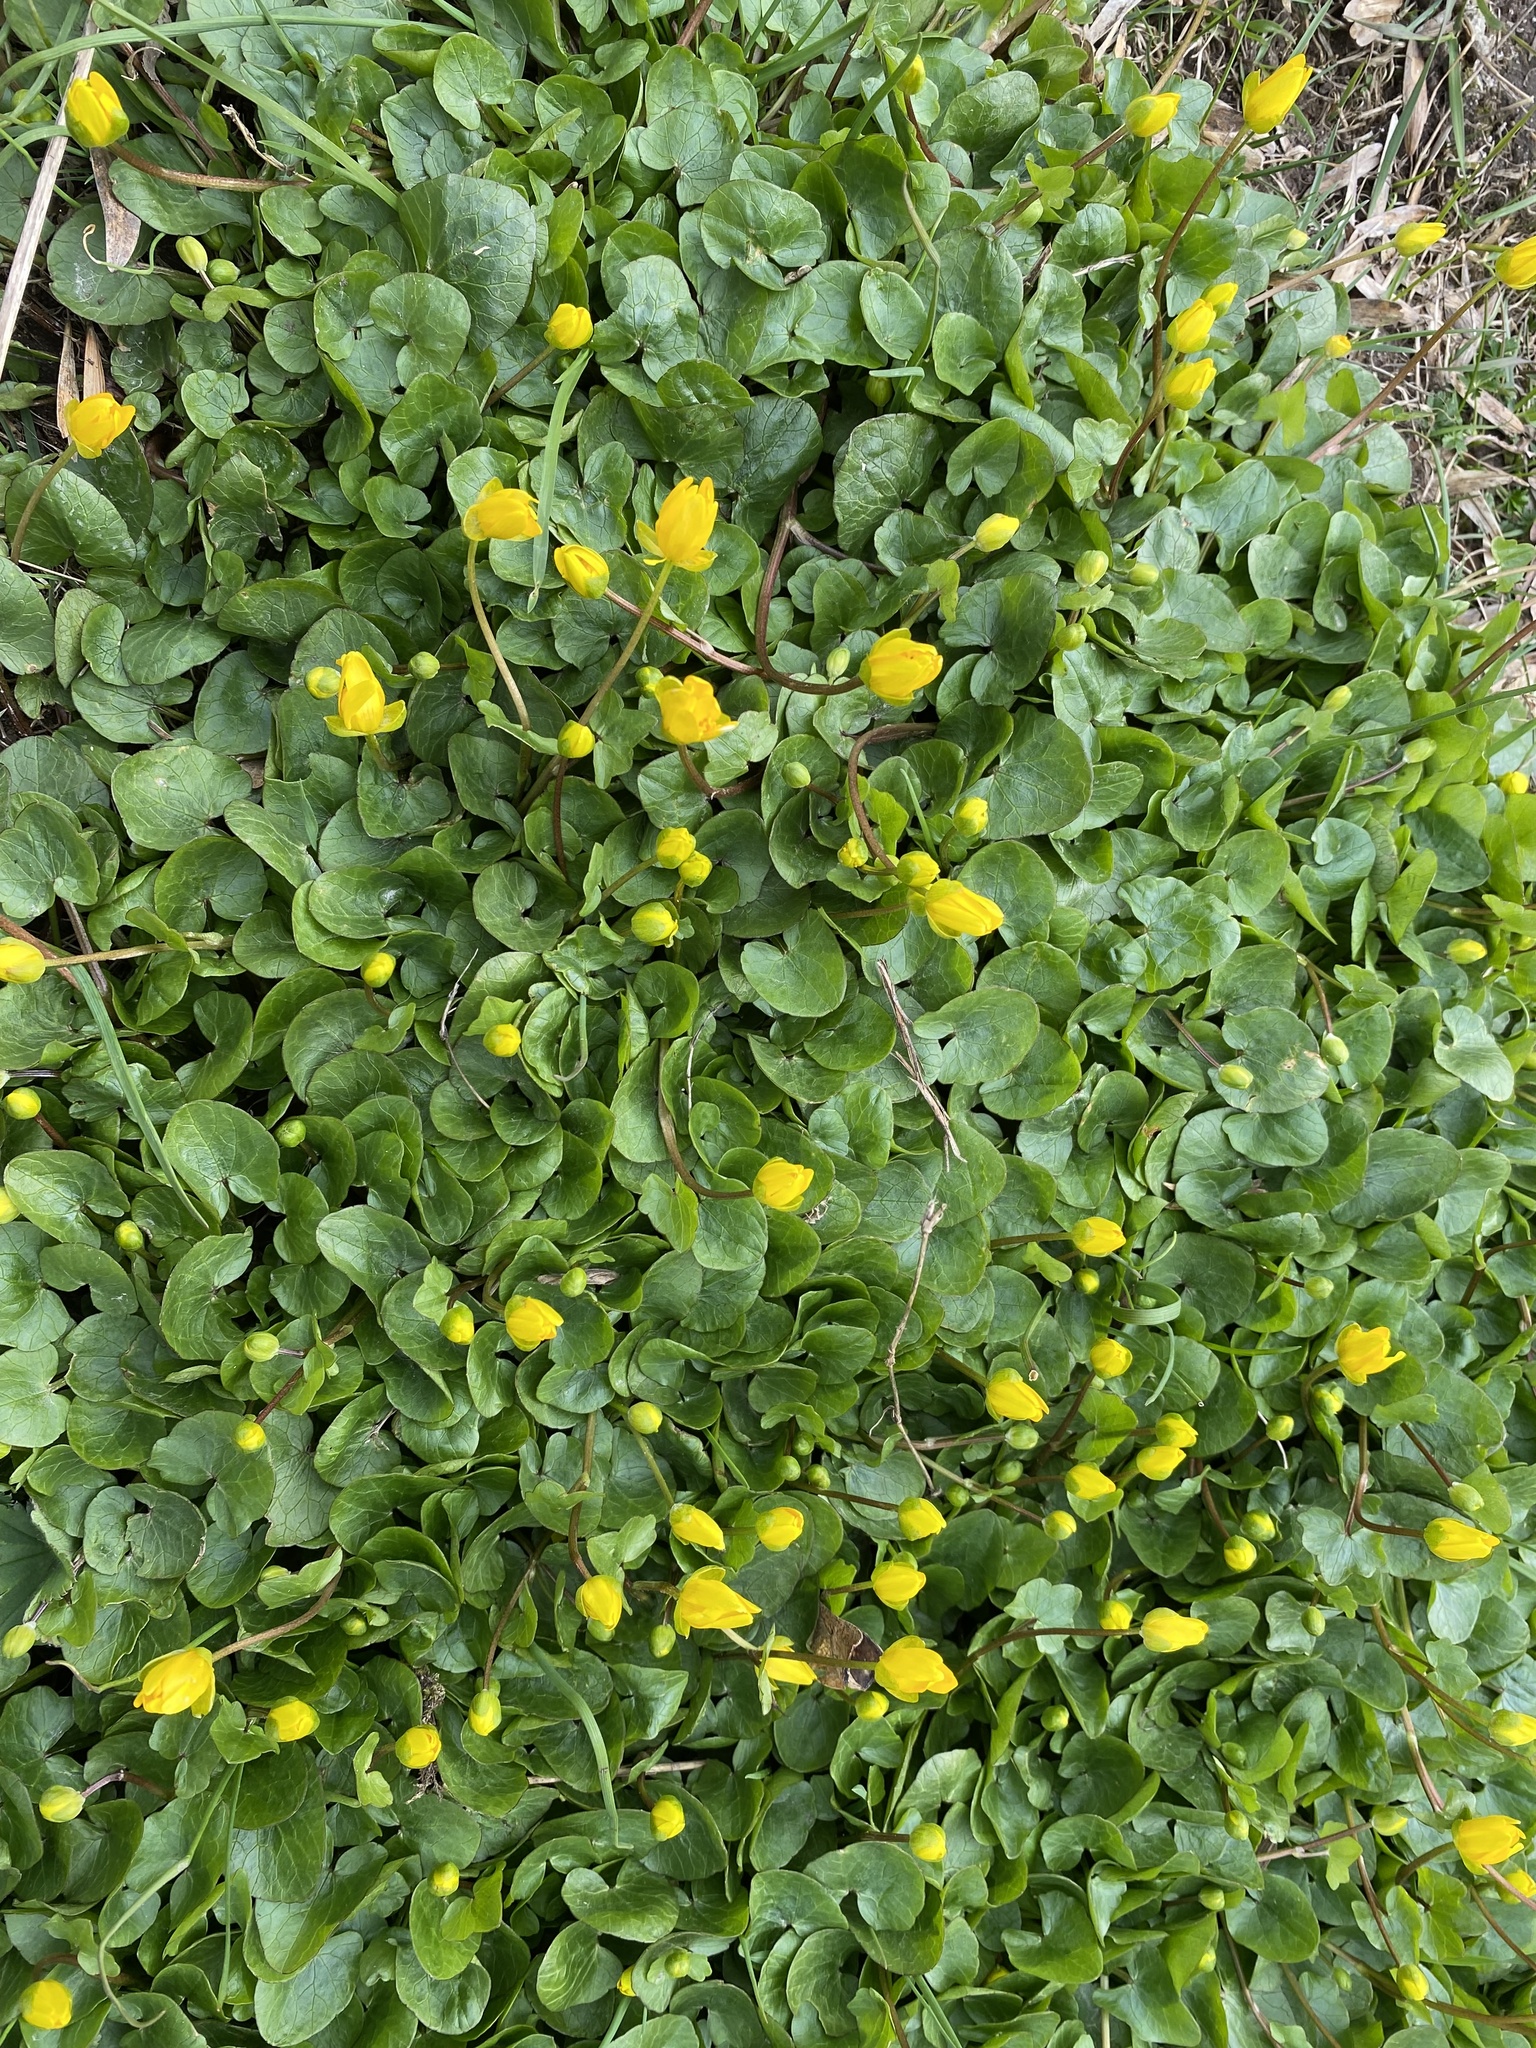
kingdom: Plantae
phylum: Tracheophyta
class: Magnoliopsida
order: Ranunculales
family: Ranunculaceae
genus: Ficaria
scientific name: Ficaria verna
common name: Lesser celandine
